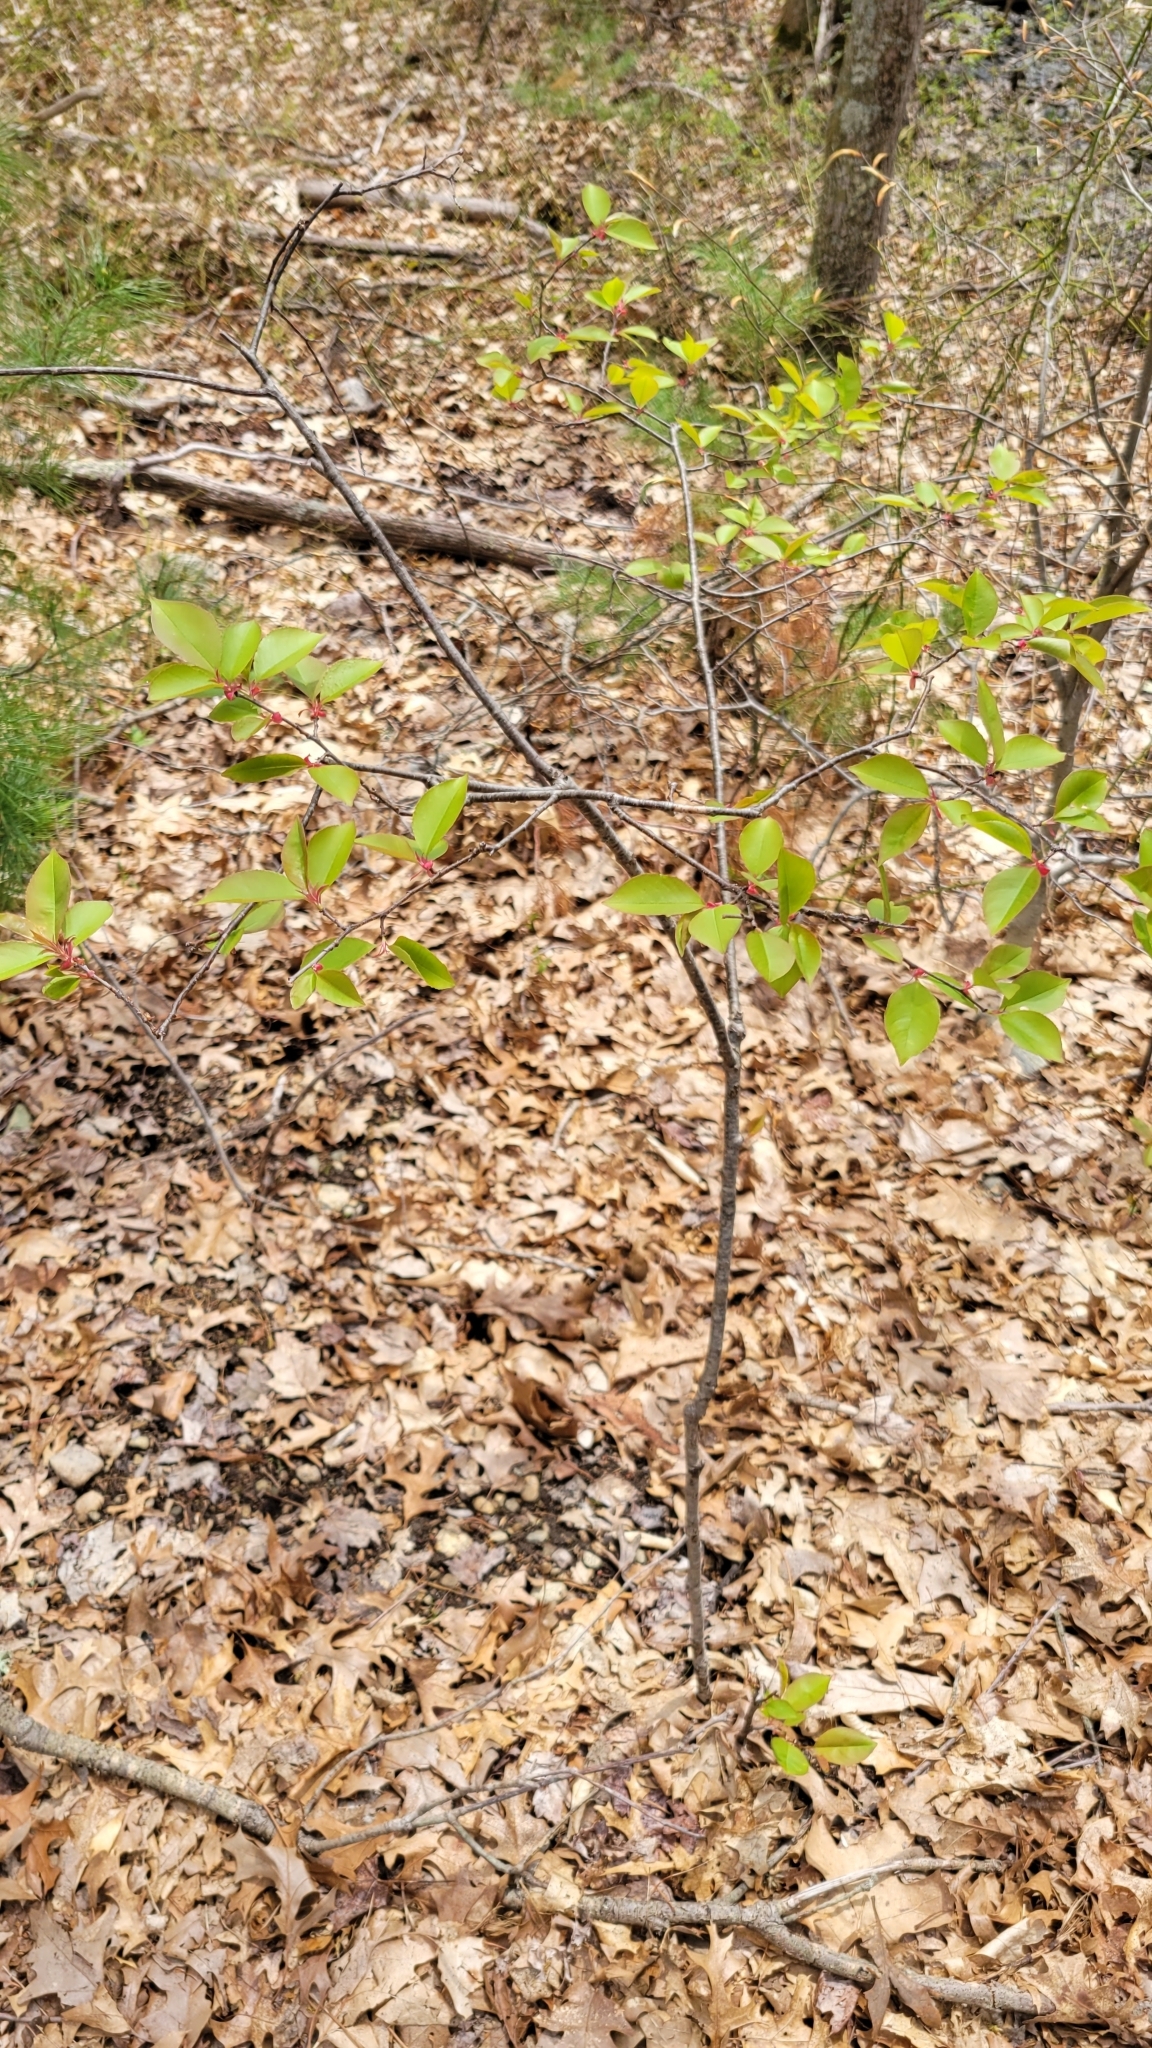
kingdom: Plantae
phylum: Tracheophyta
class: Magnoliopsida
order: Rosales
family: Rosaceae
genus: Prunus
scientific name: Prunus serotina
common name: Black cherry
